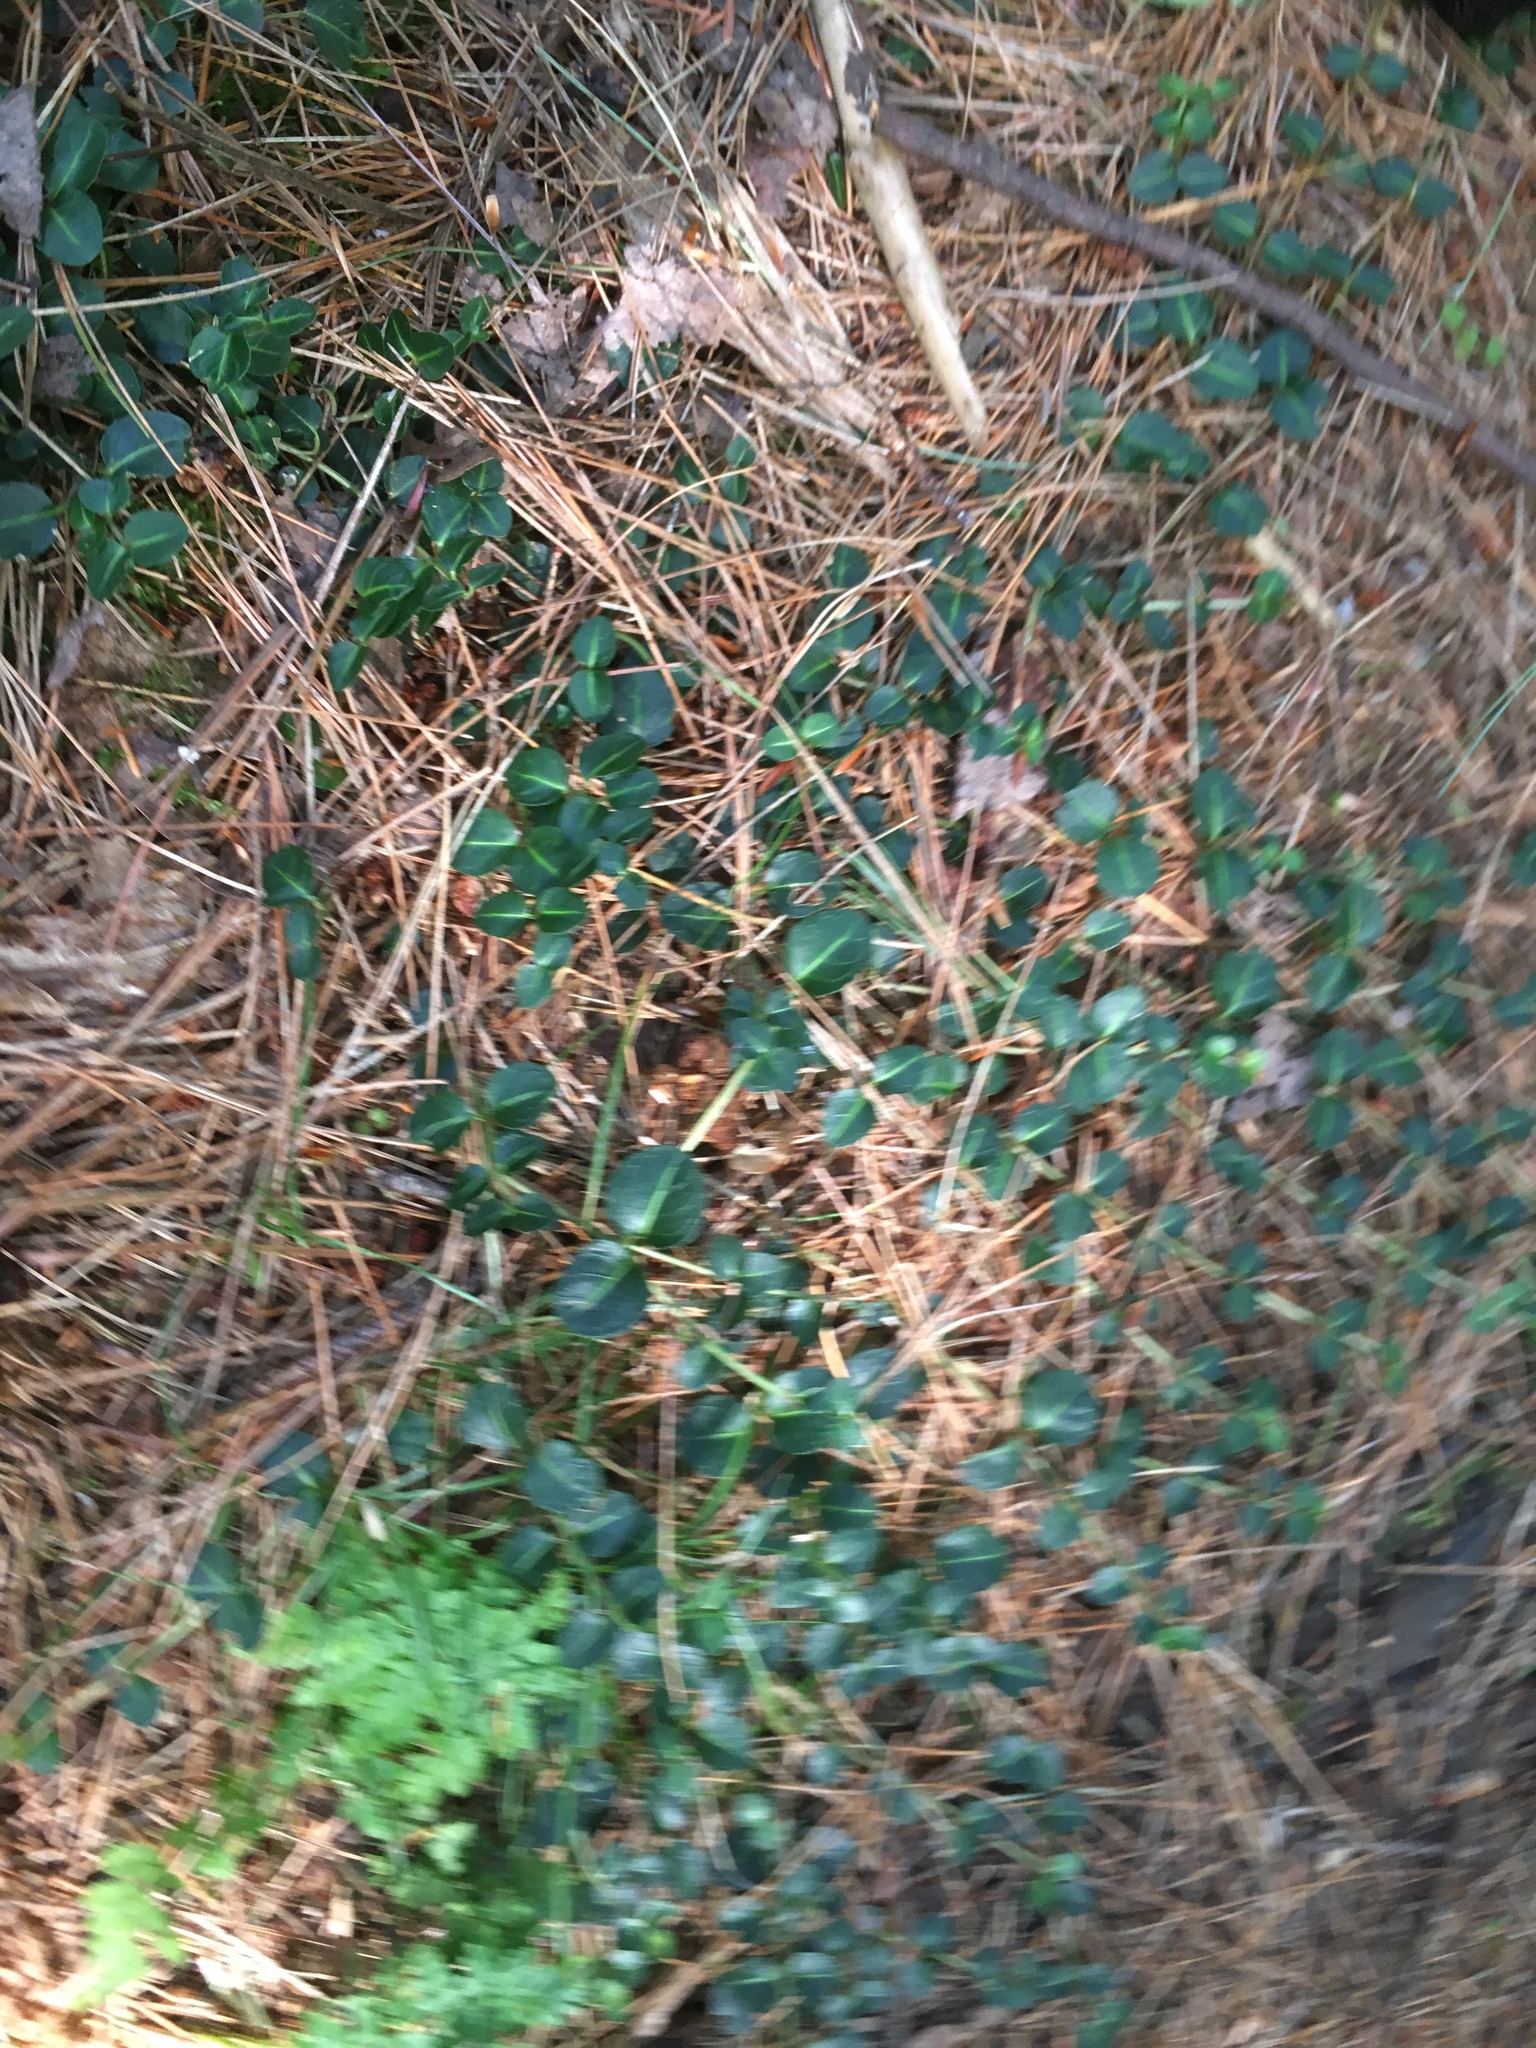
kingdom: Plantae
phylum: Tracheophyta
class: Magnoliopsida
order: Gentianales
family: Rubiaceae
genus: Mitchella
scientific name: Mitchella repens
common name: Partridge-berry
